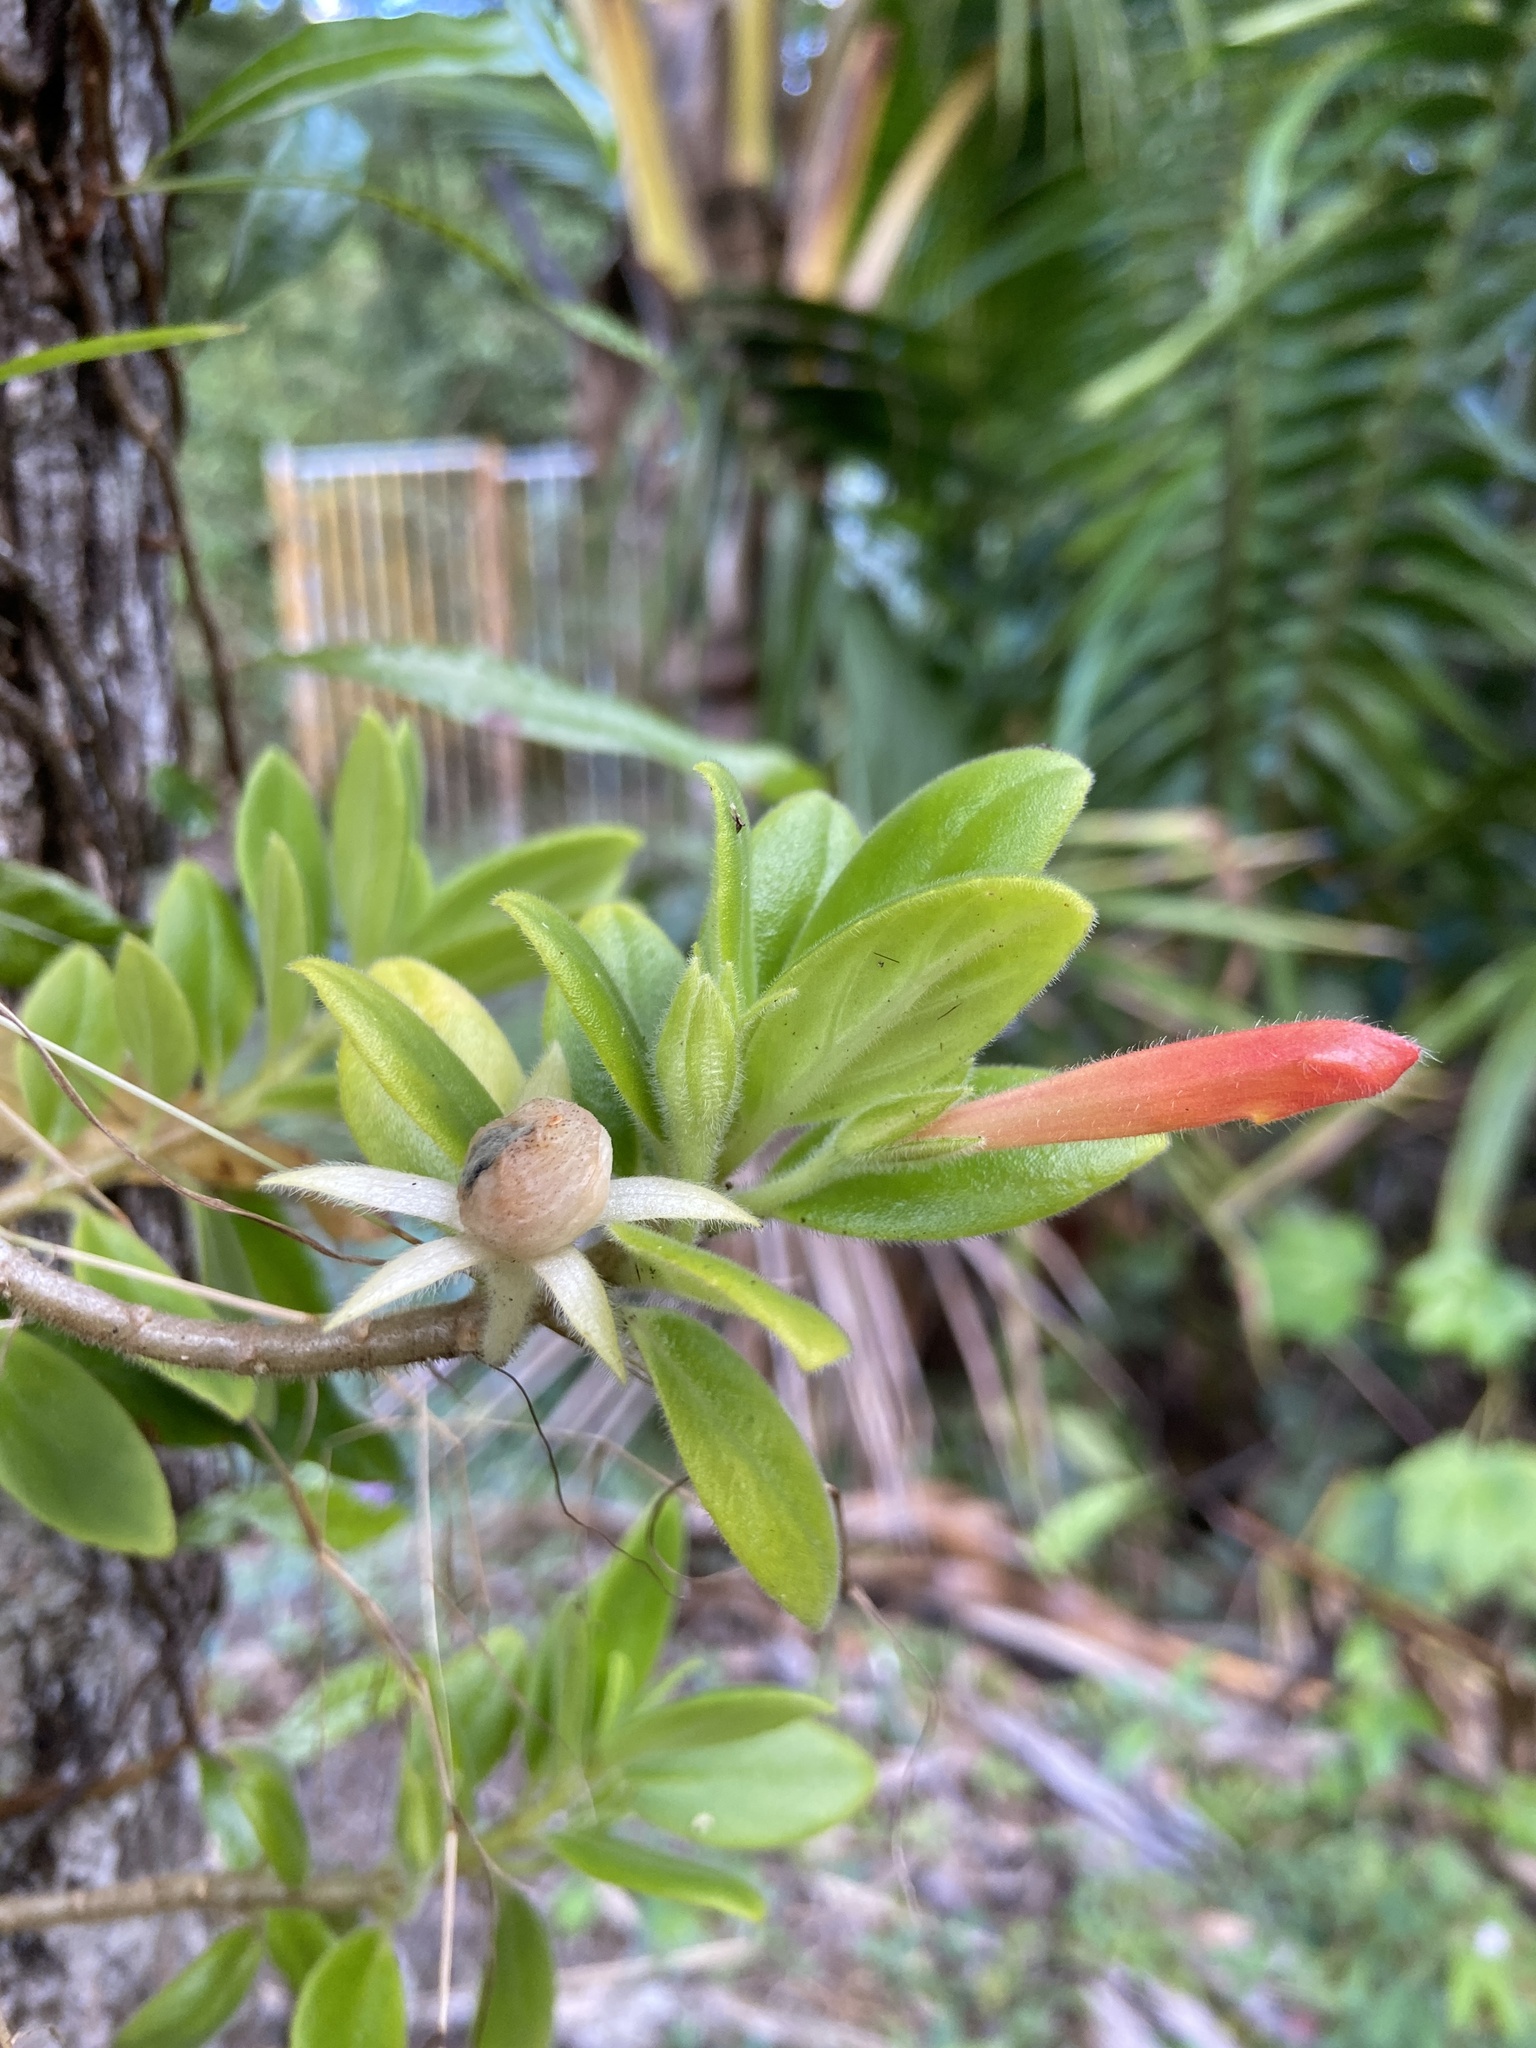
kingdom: Plantae
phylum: Tracheophyta
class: Magnoliopsida
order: Lamiales
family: Gesneriaceae
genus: Columnea
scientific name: Columnea scandens
